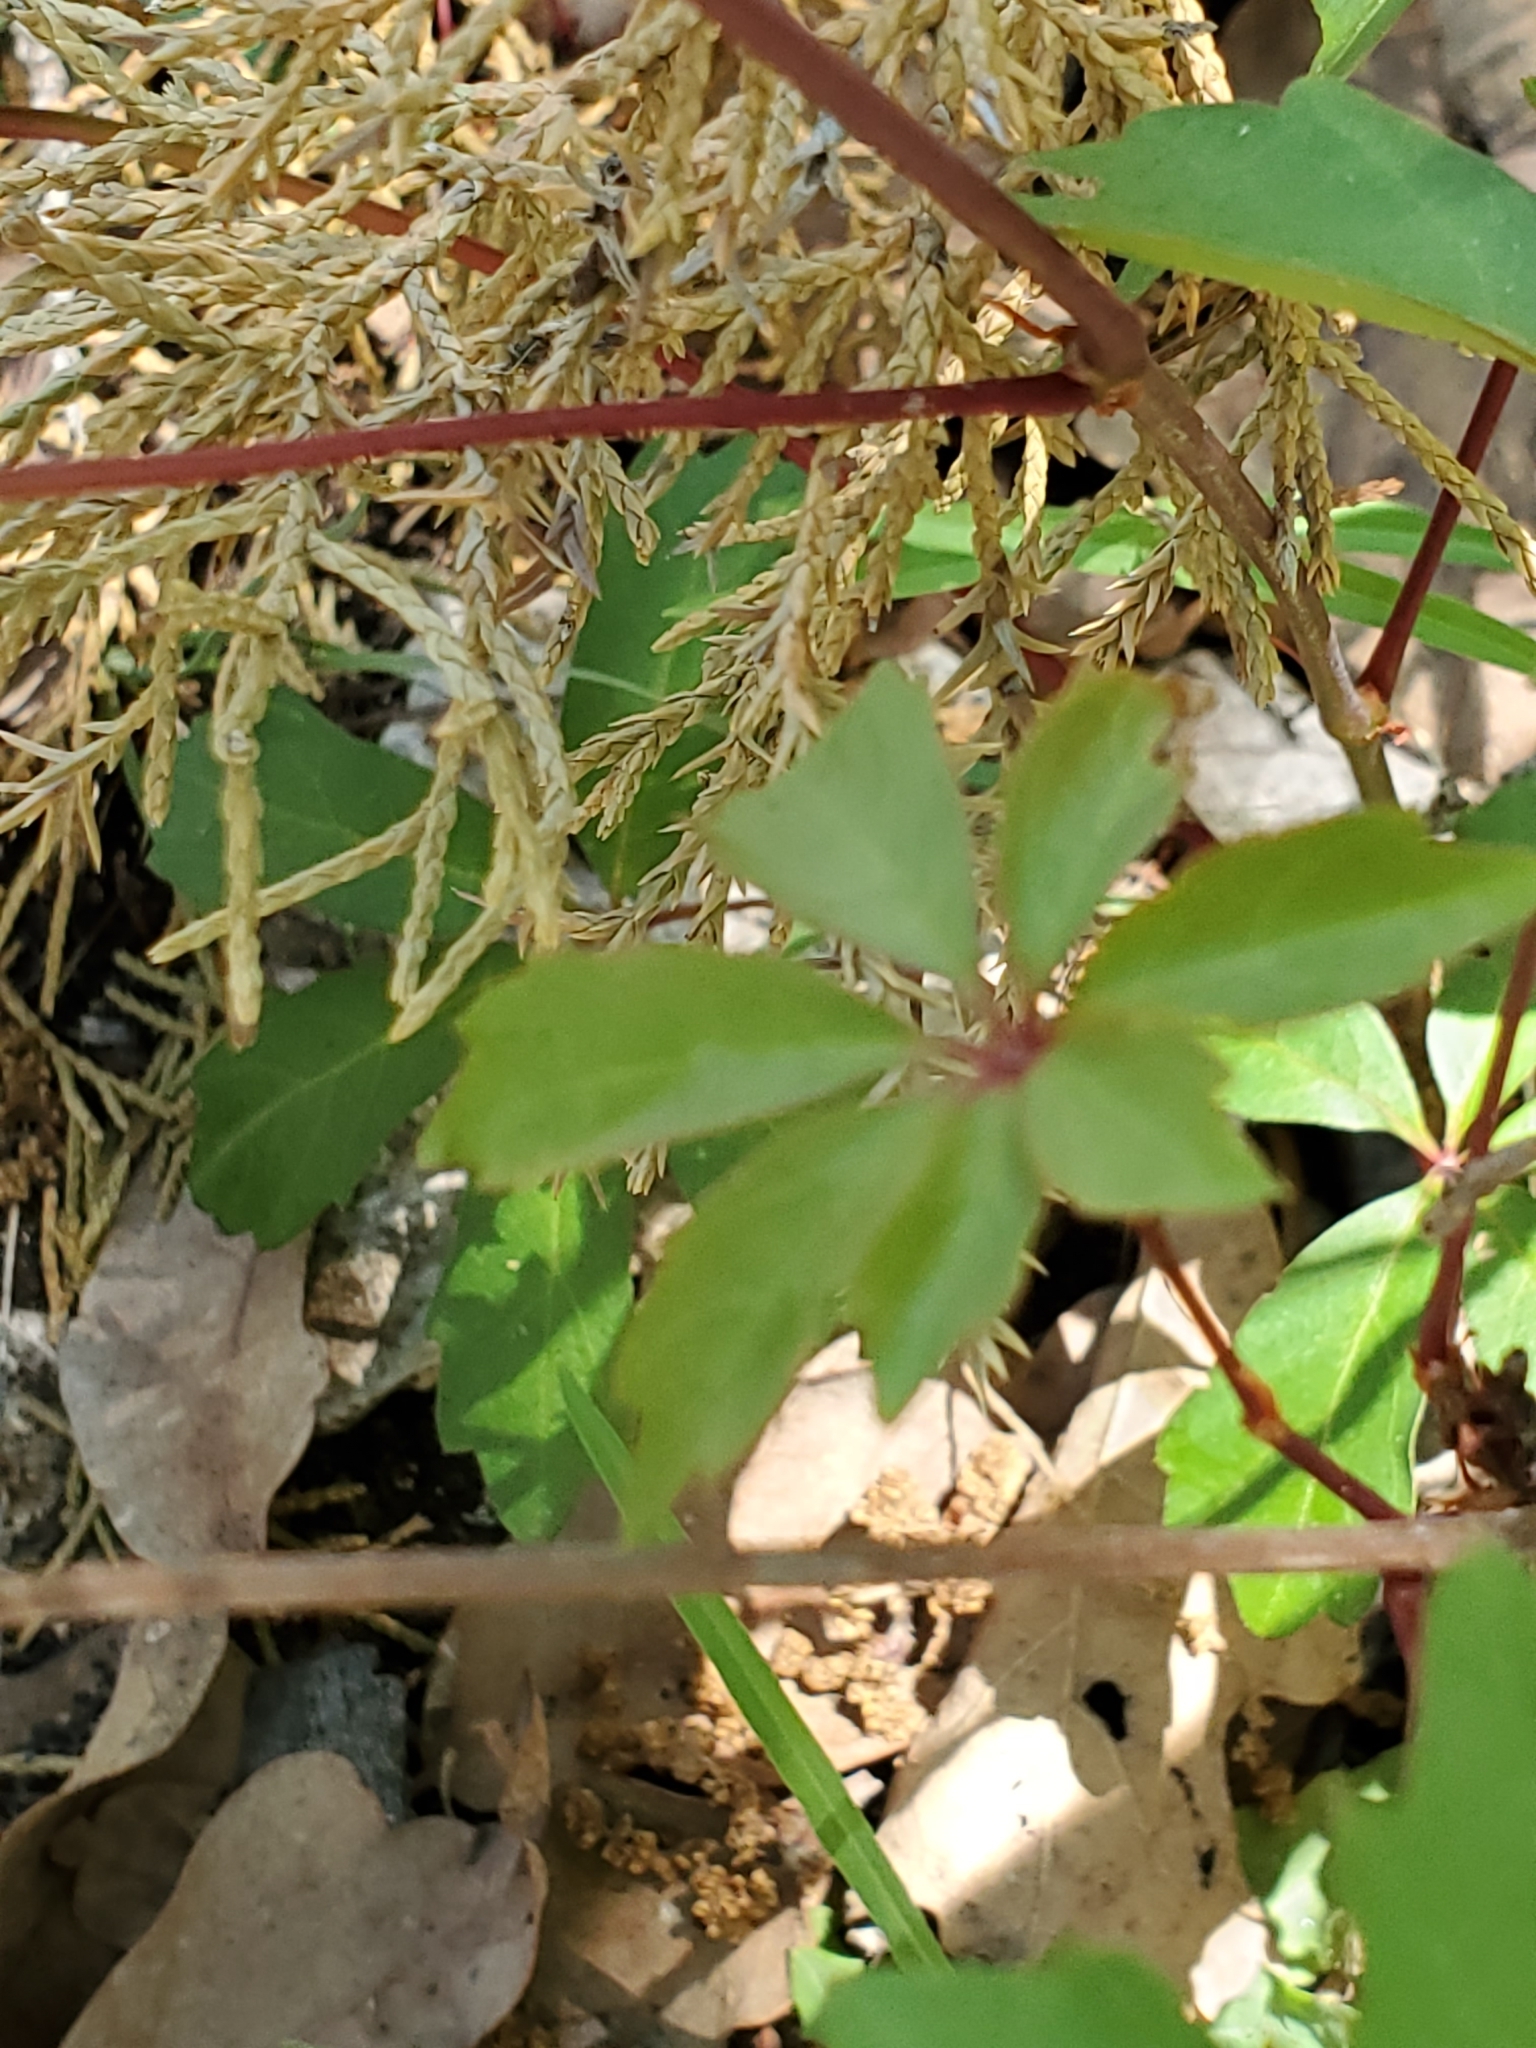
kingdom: Plantae
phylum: Tracheophyta
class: Magnoliopsida
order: Vitales
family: Vitaceae
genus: Parthenocissus
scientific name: Parthenocissus heptaphylla
